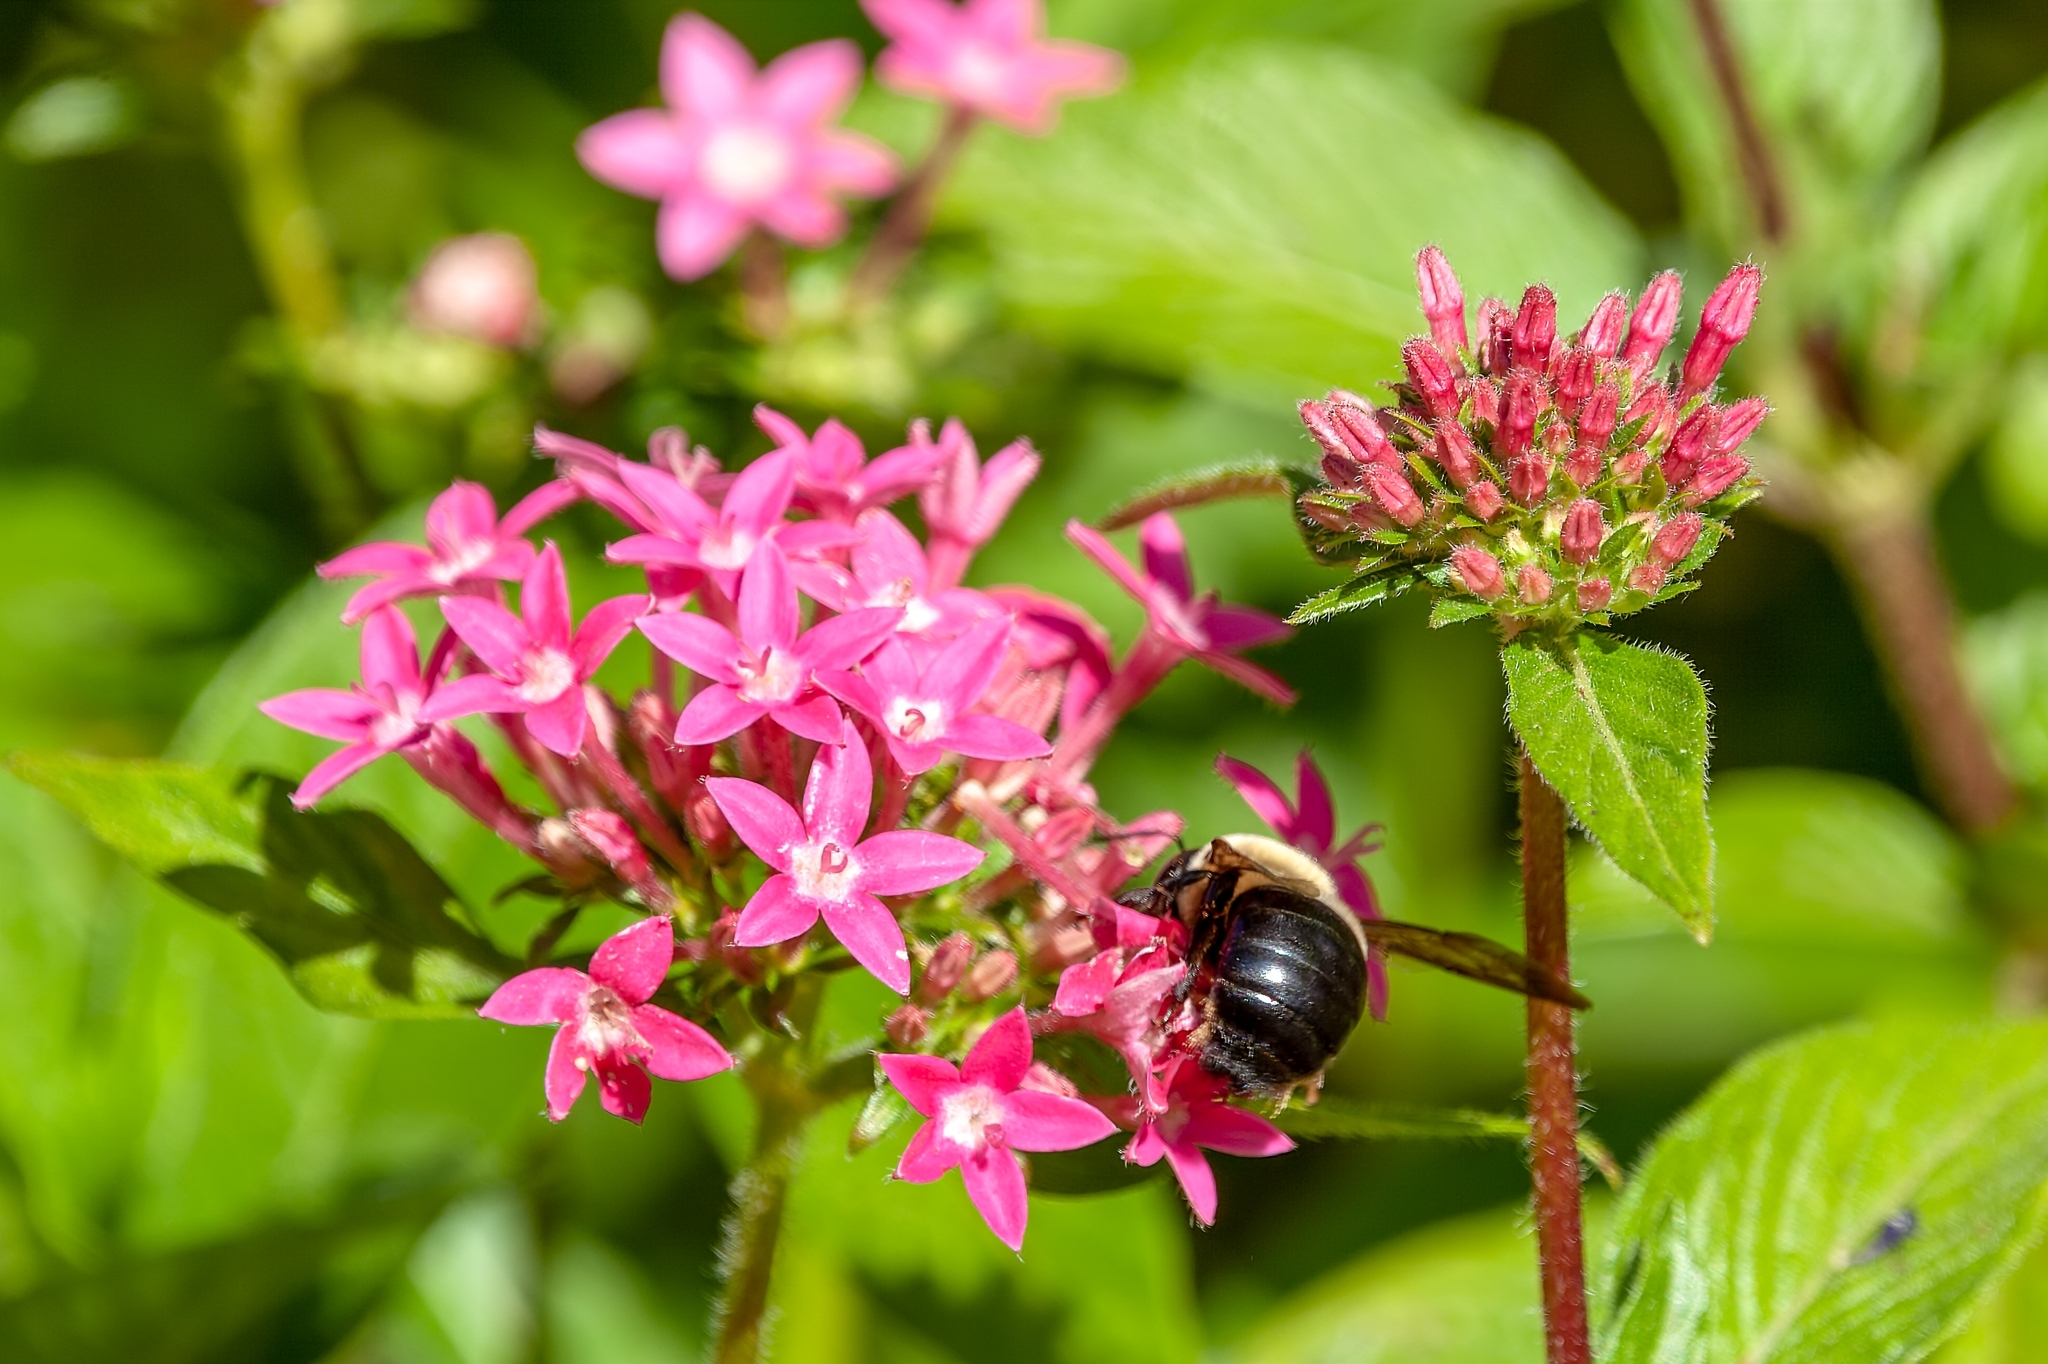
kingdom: Animalia
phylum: Arthropoda
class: Insecta
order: Hymenoptera
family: Apidae
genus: Xylocopa
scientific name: Xylocopa virginica
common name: Carpenter bee
